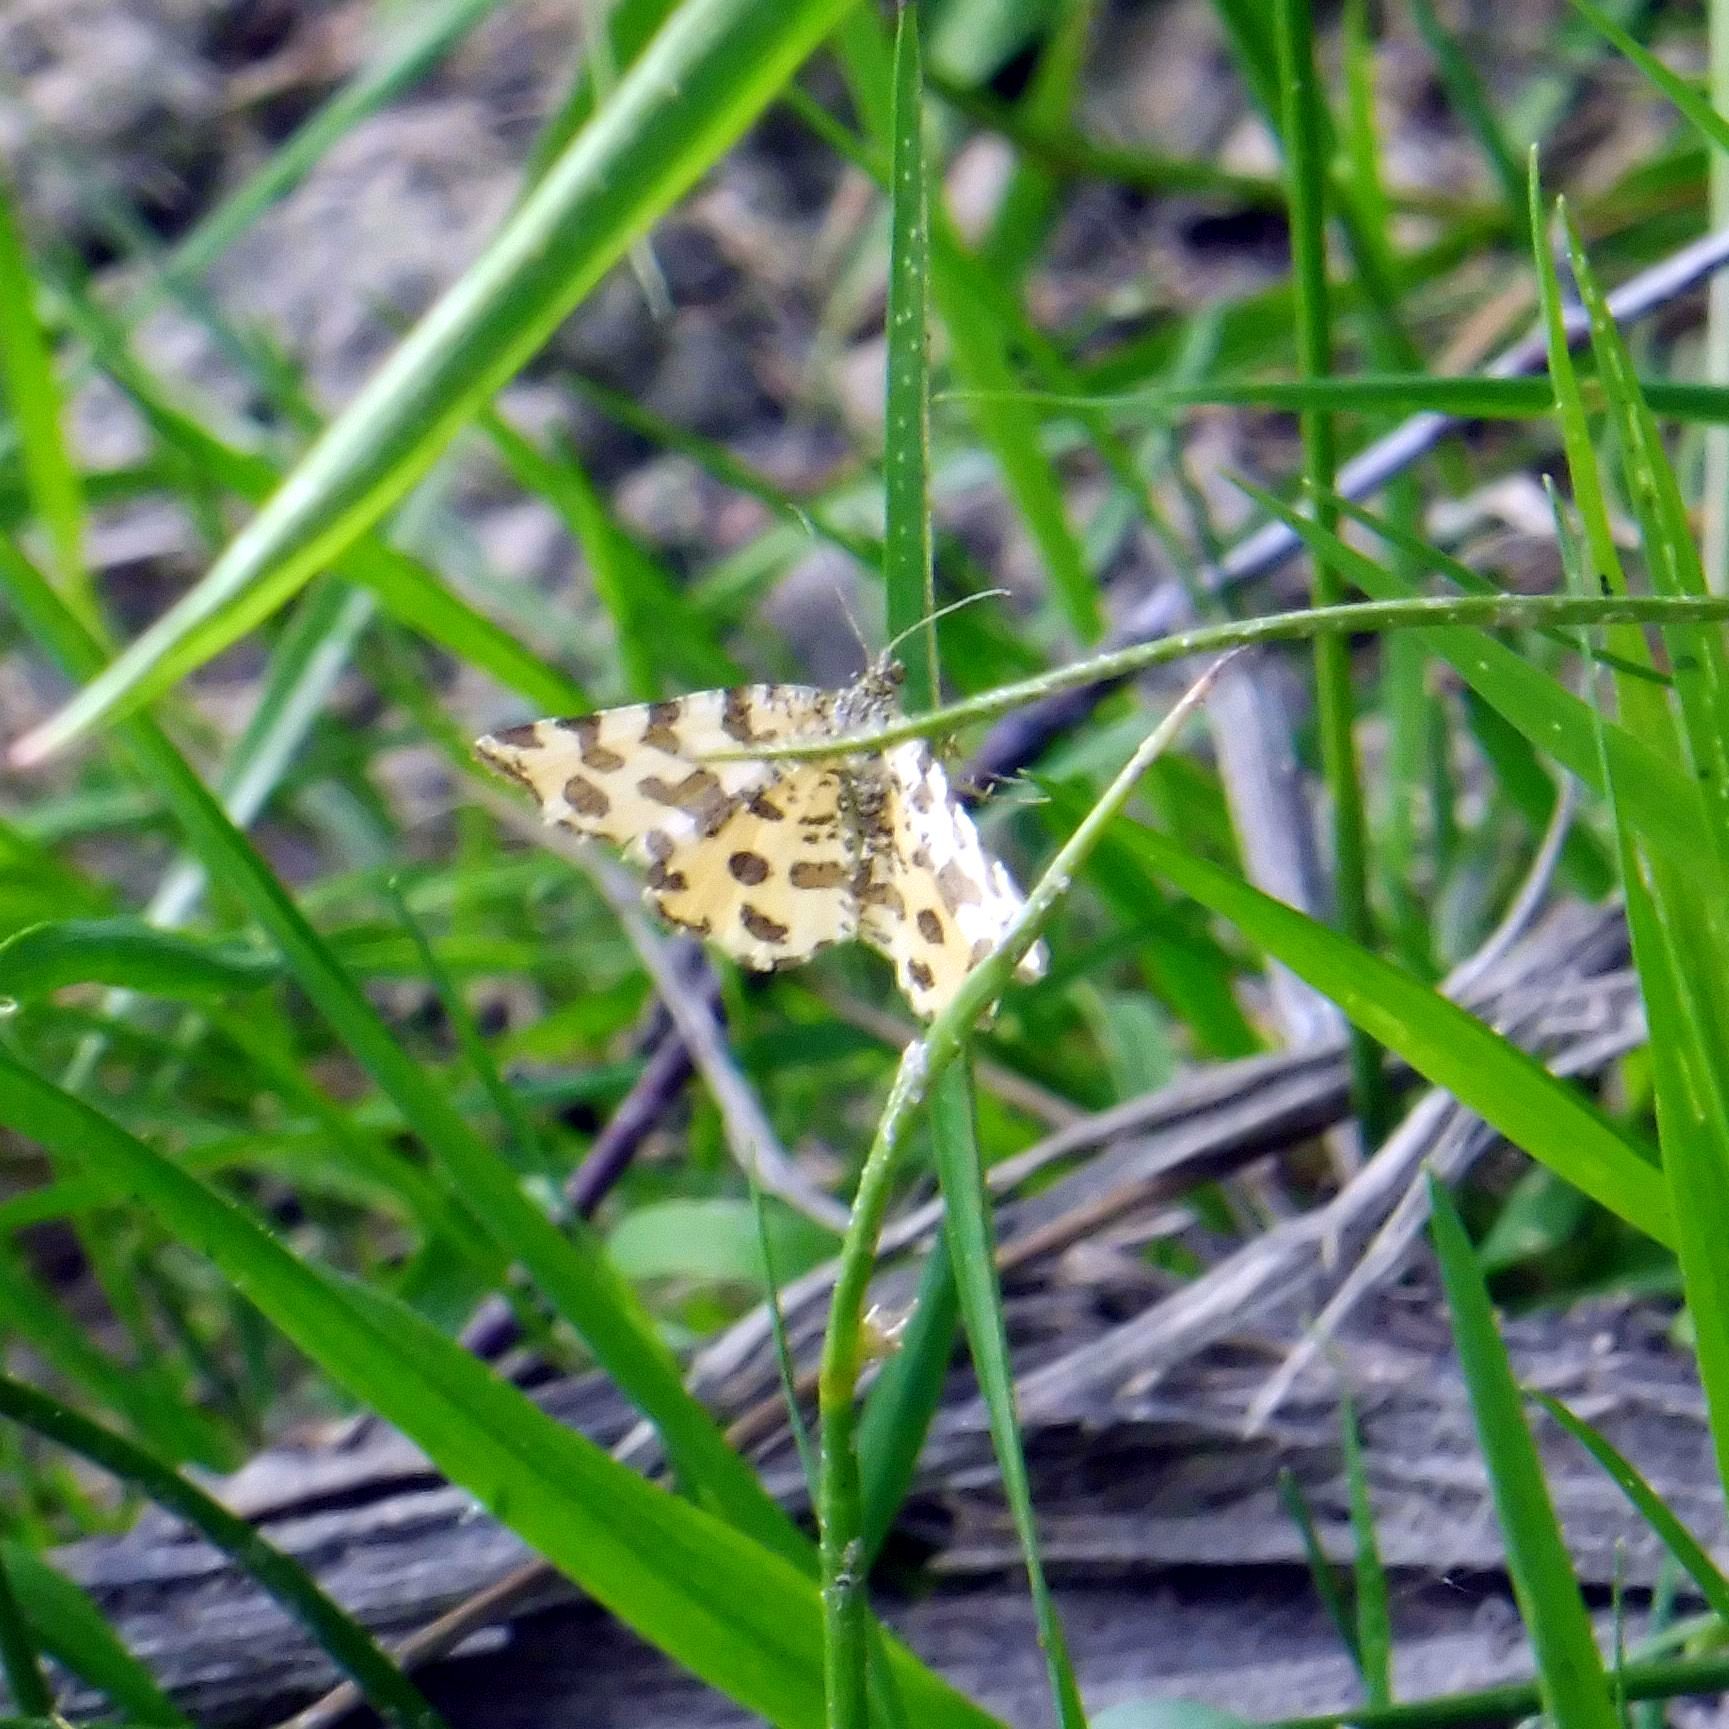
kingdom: Animalia
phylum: Arthropoda
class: Insecta
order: Lepidoptera
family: Geometridae
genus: Pseudopanthera
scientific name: Pseudopanthera macularia
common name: Speckled yellow
